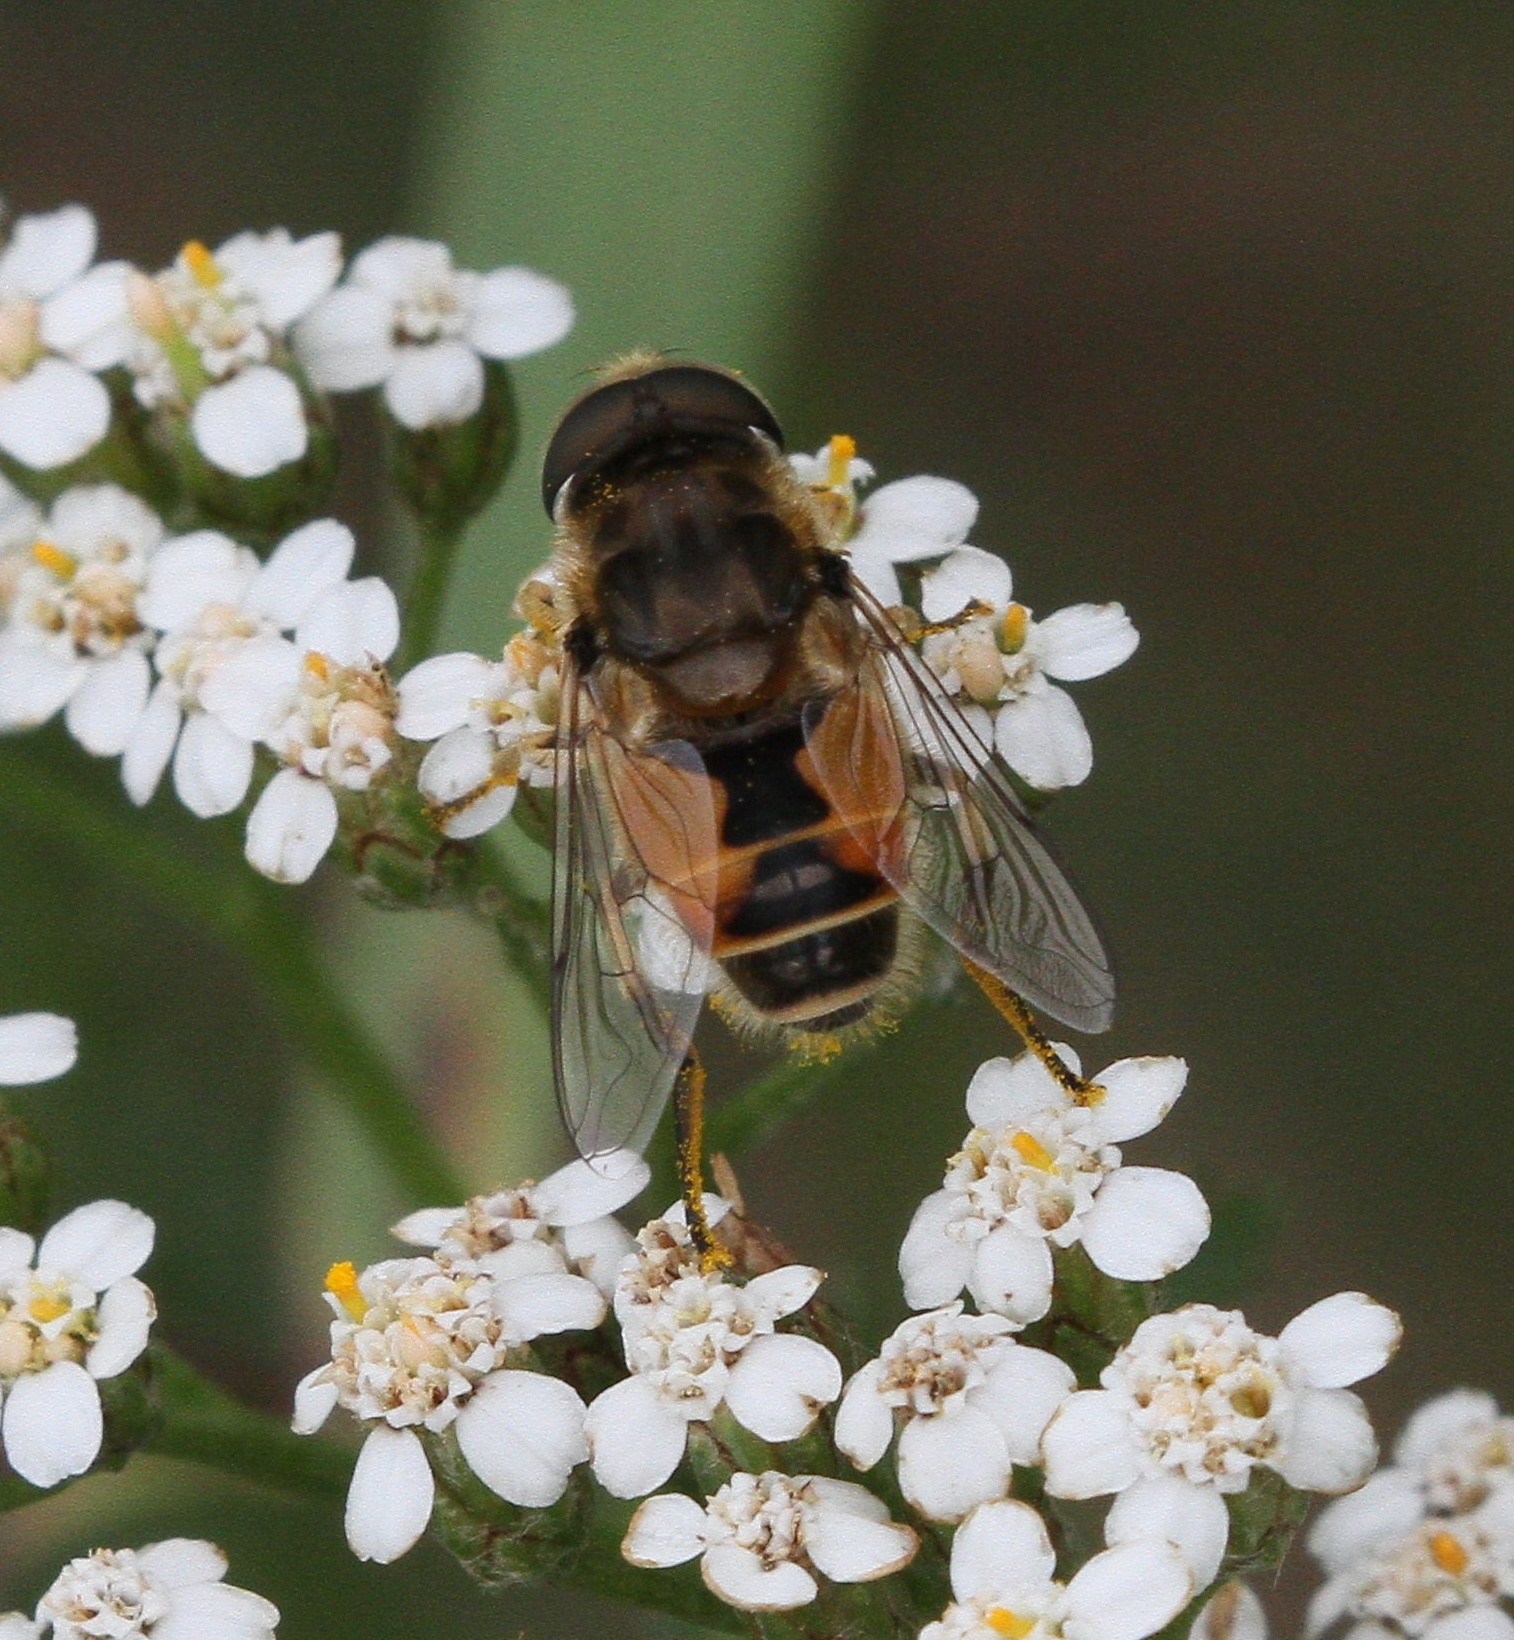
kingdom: Animalia
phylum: Arthropoda
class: Insecta
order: Diptera
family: Syrphidae
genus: Eristalis
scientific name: Eristalis arbustorum
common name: Hover fly
